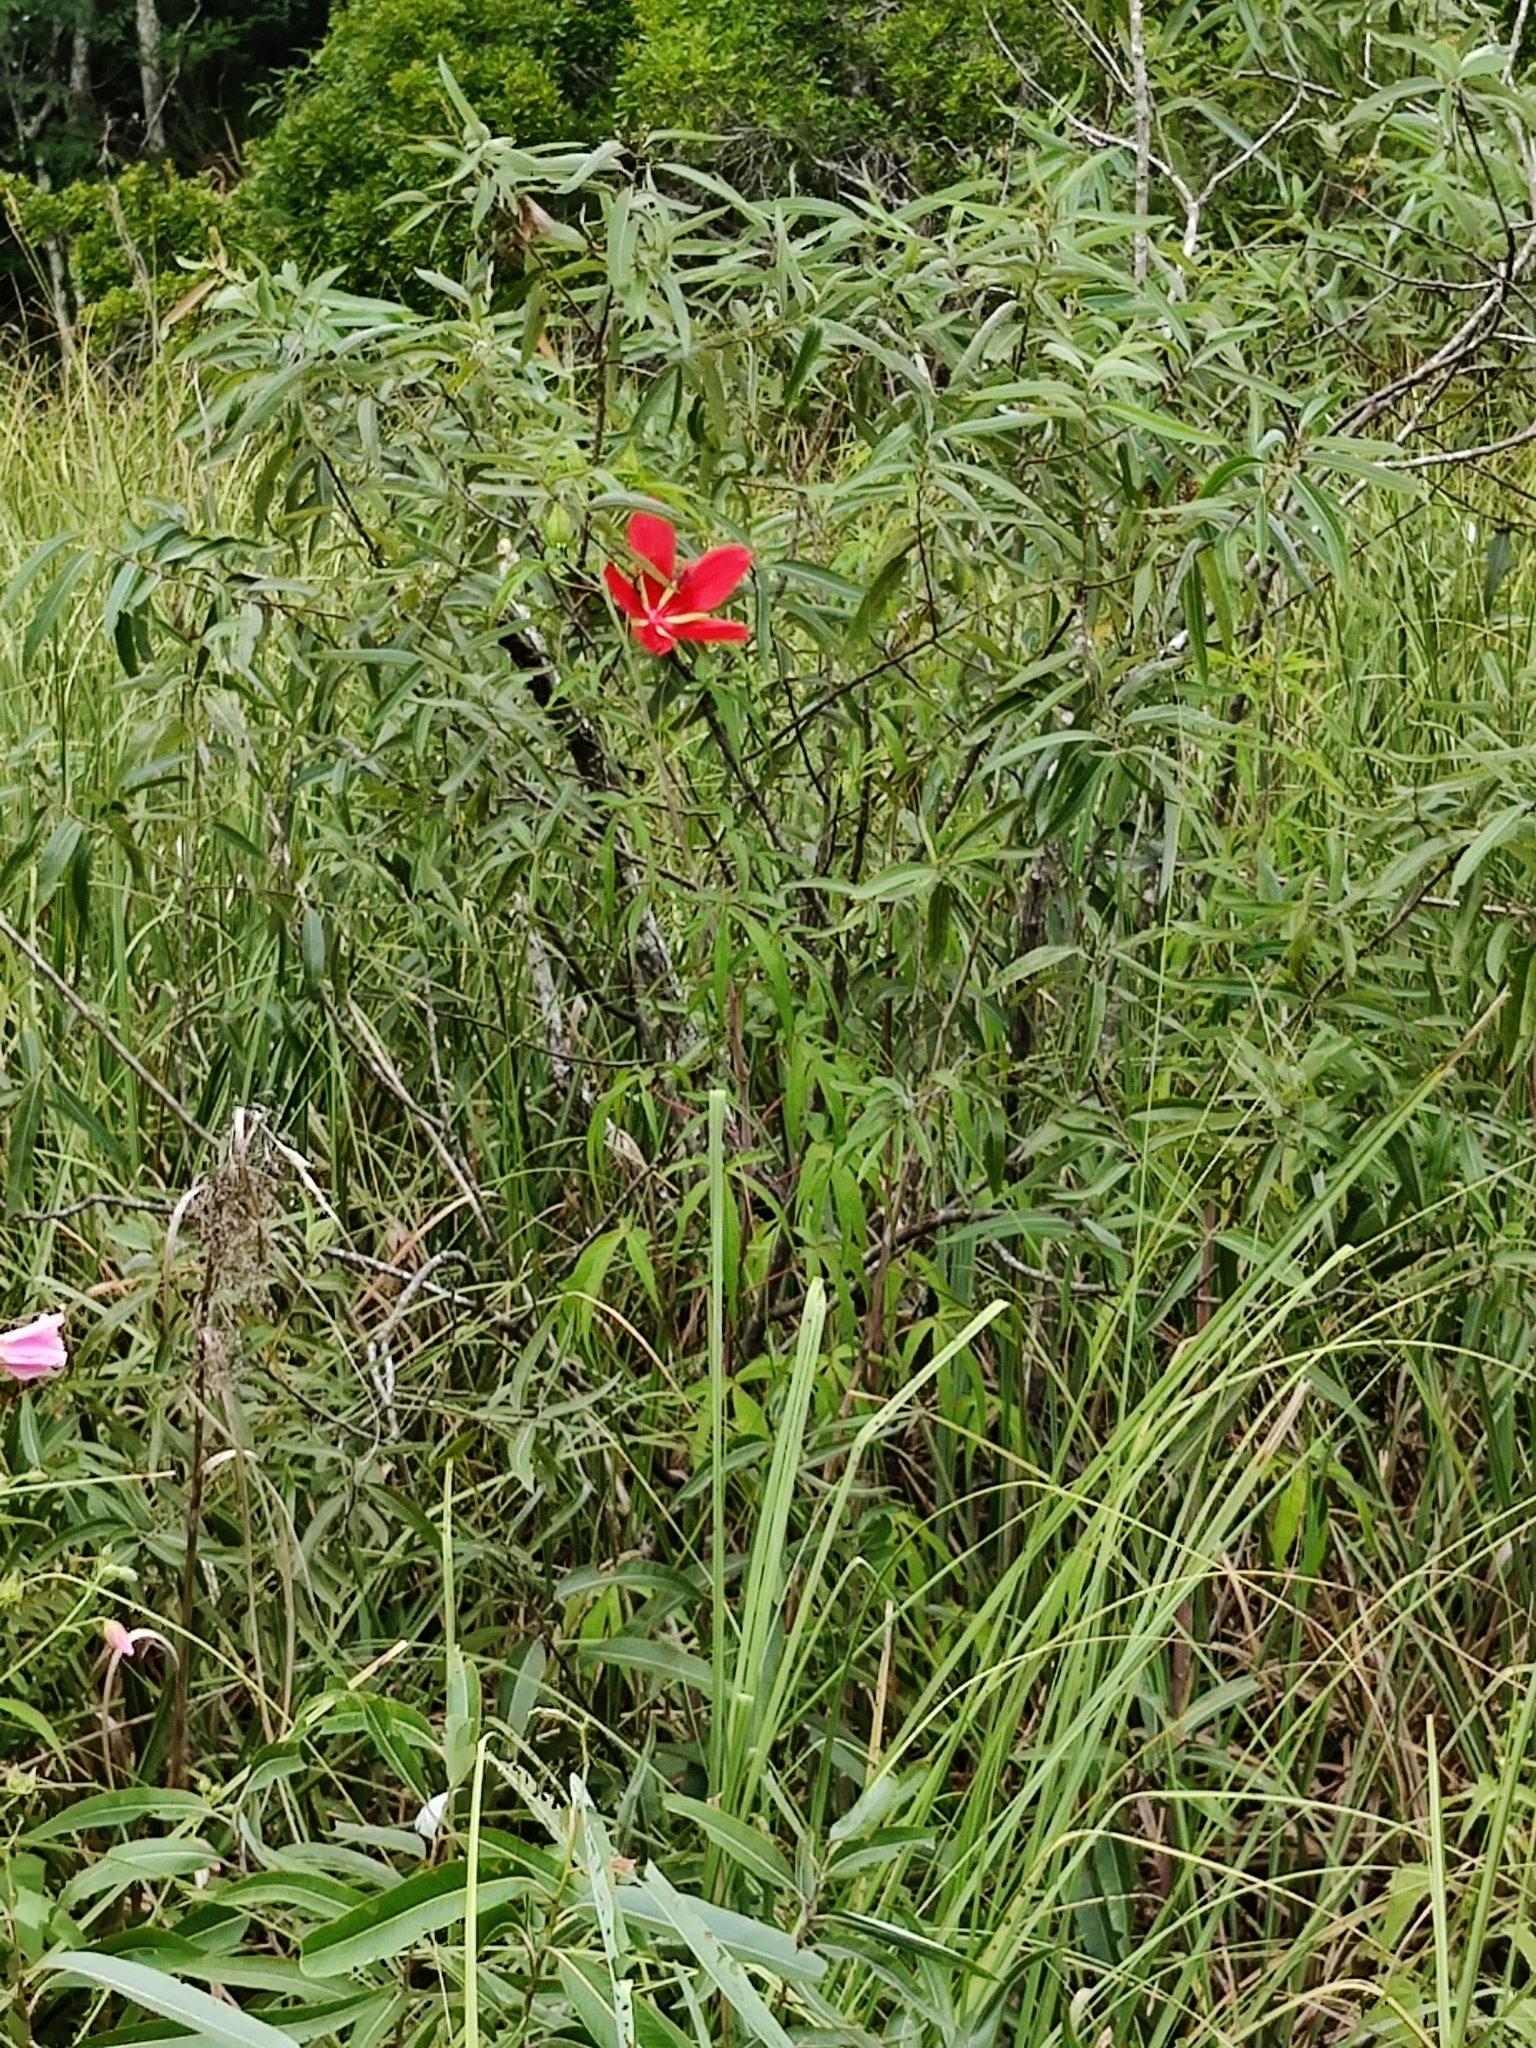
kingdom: Plantae
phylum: Tracheophyta
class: Magnoliopsida
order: Malvales
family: Malvaceae
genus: Hibiscus
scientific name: Hibiscus coccineus
